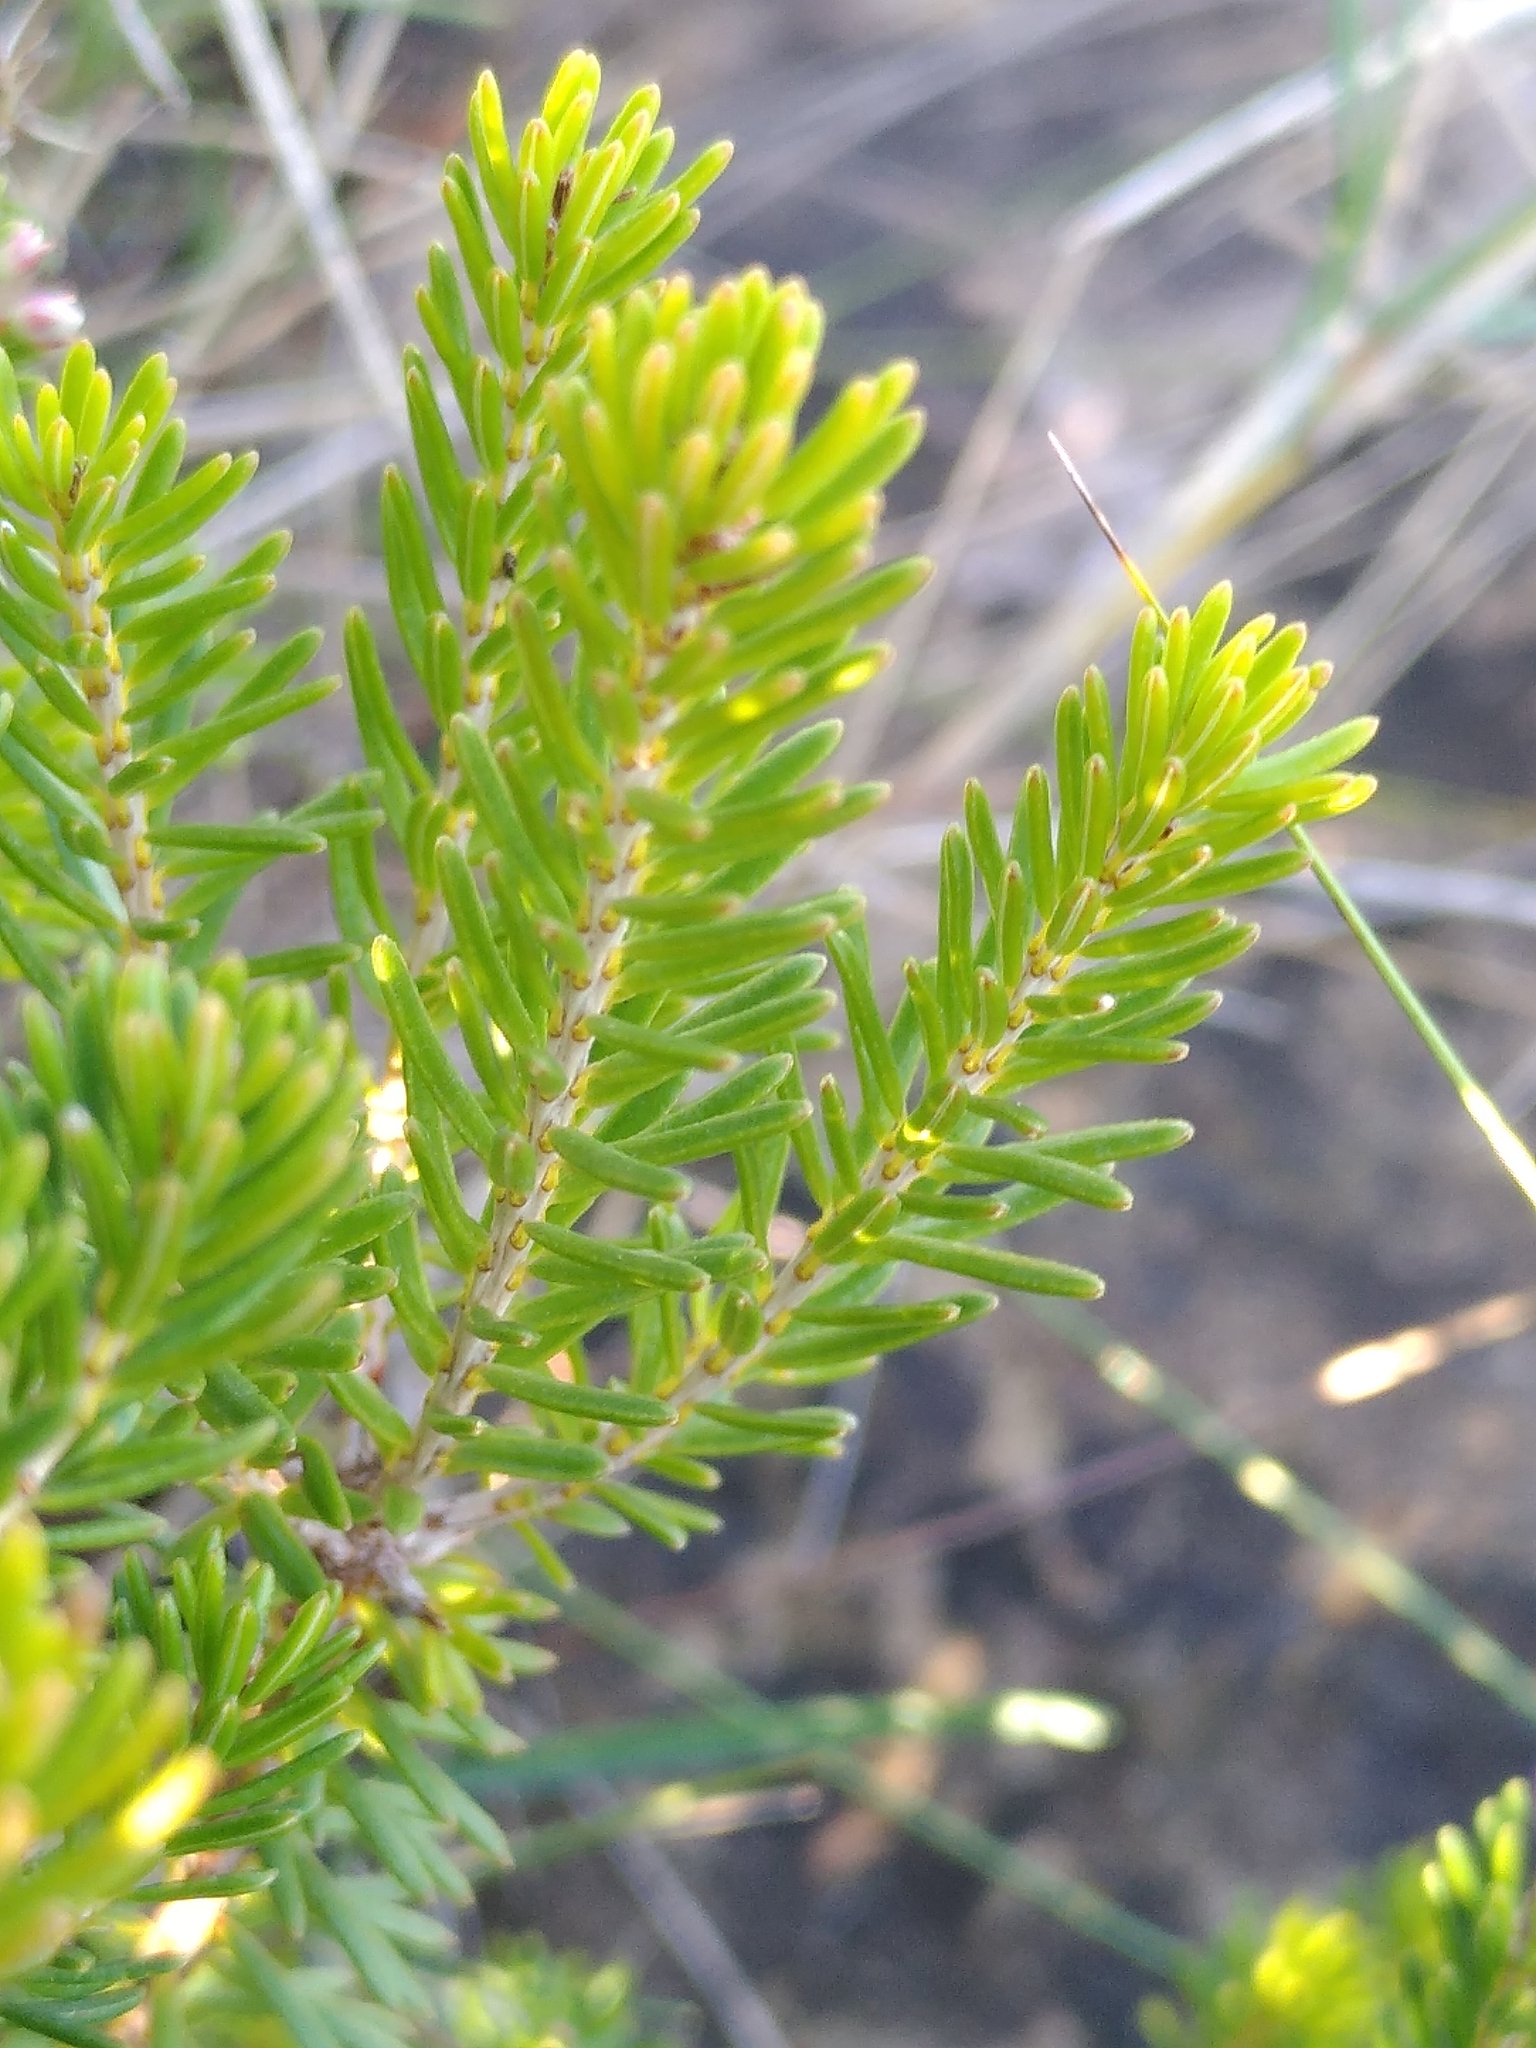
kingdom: Plantae
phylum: Tracheophyta
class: Magnoliopsida
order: Ericales
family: Ericaceae
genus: Erica
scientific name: Erica multiflora
